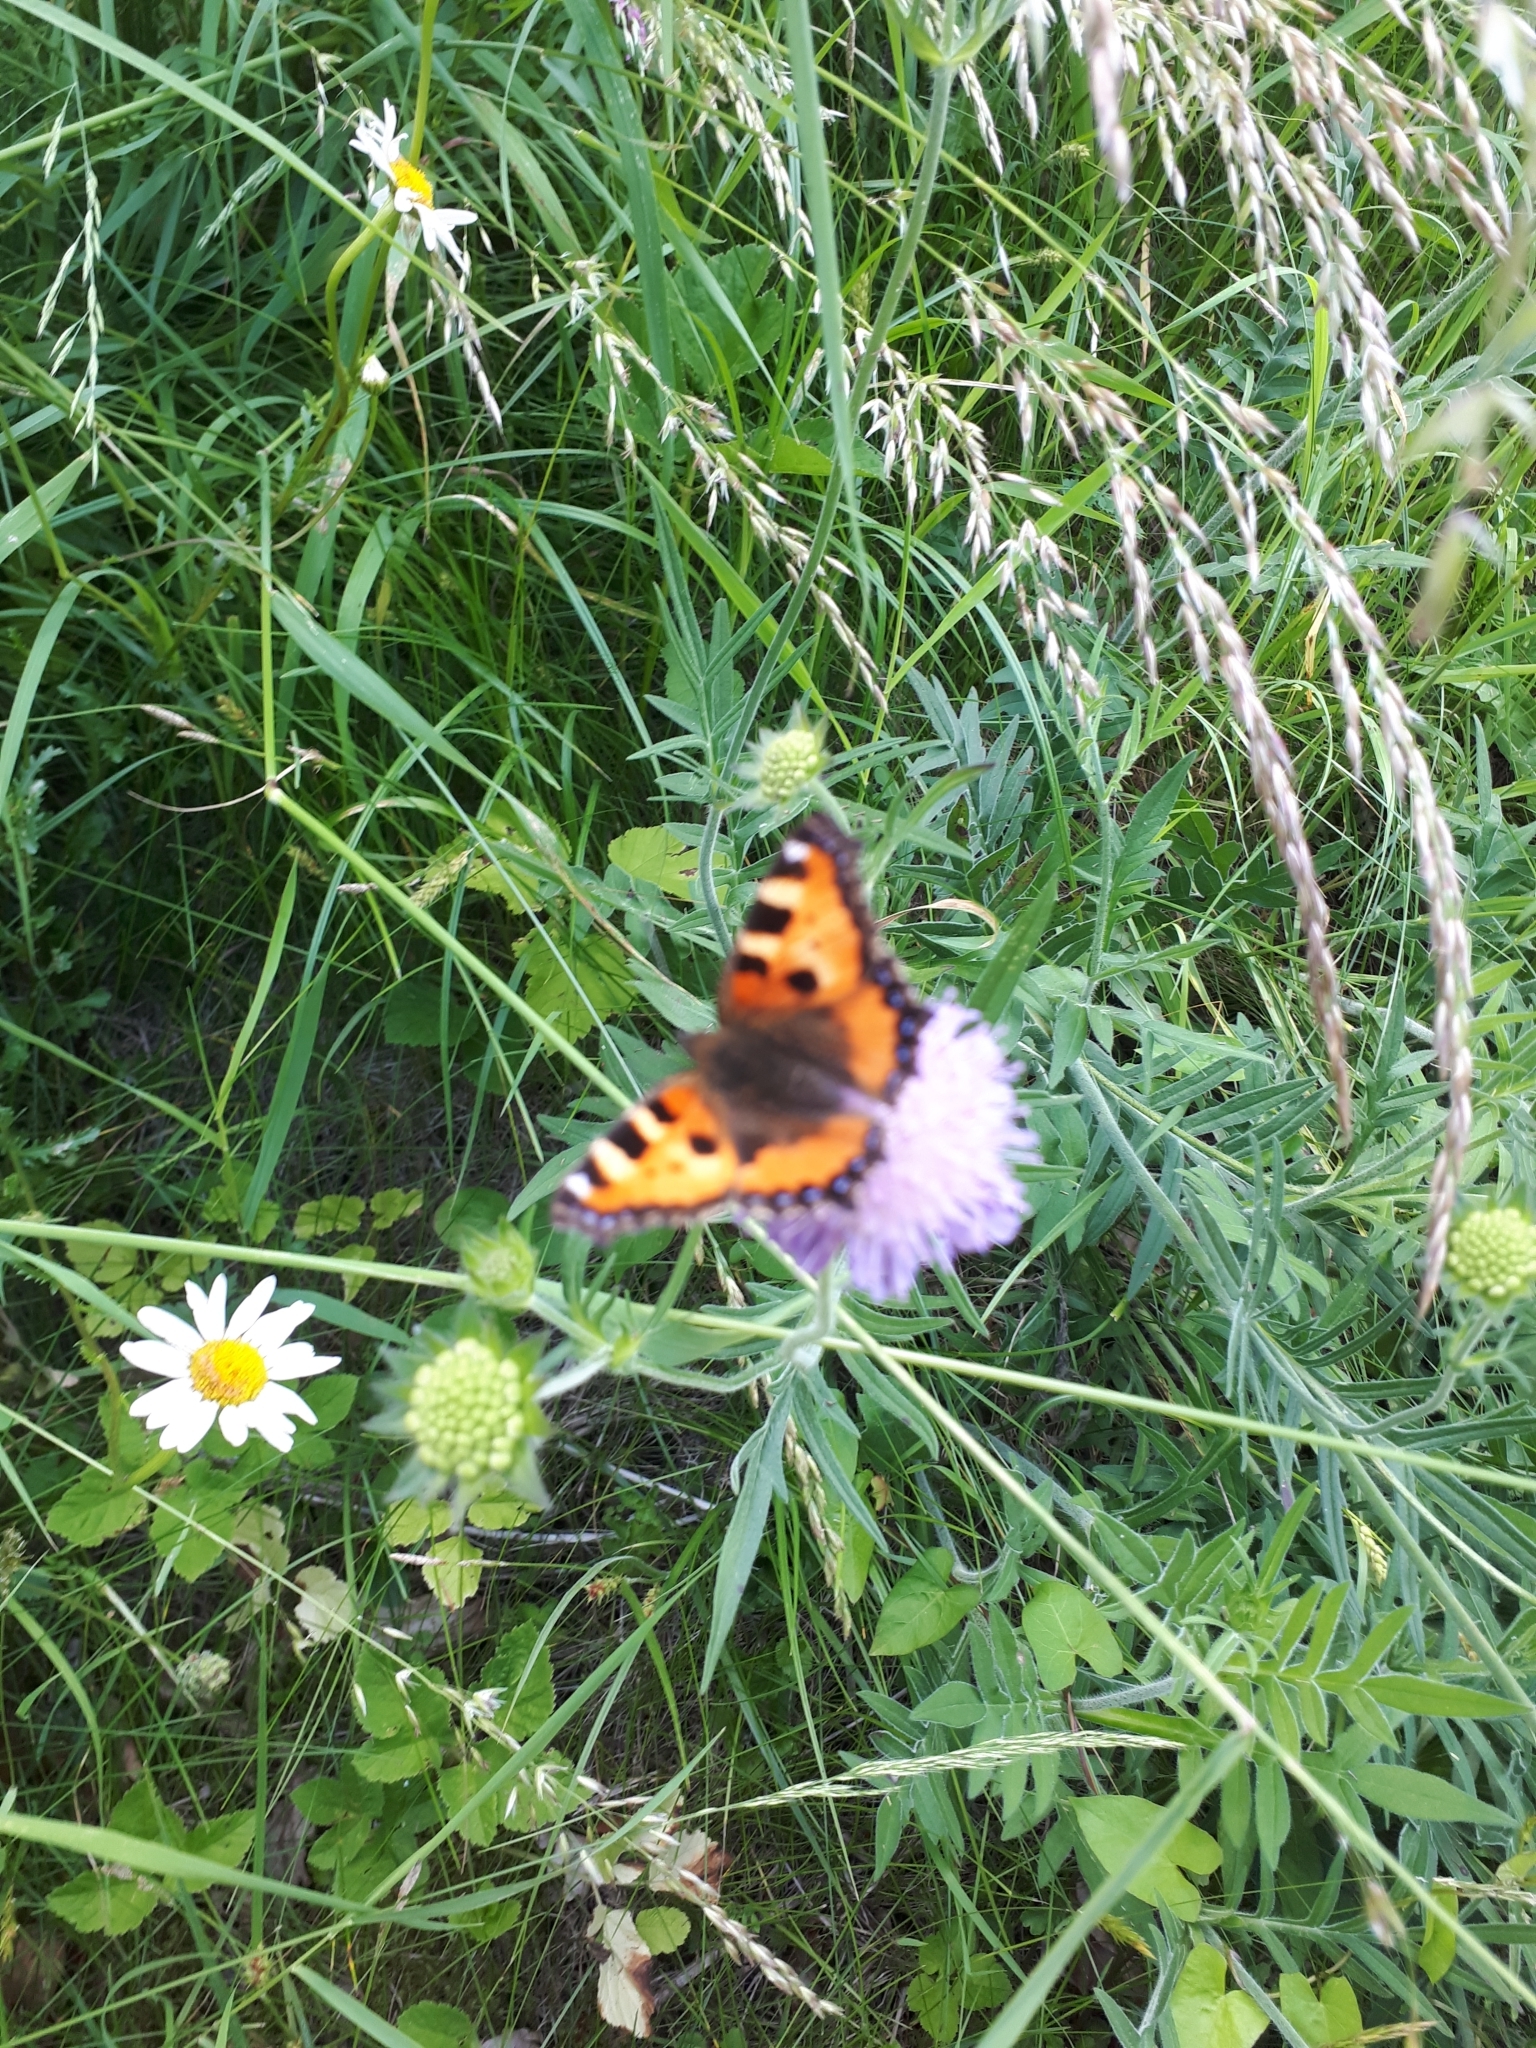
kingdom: Animalia
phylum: Arthropoda
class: Insecta
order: Lepidoptera
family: Nymphalidae
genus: Aglais
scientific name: Aglais urticae
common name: Small tortoiseshell
